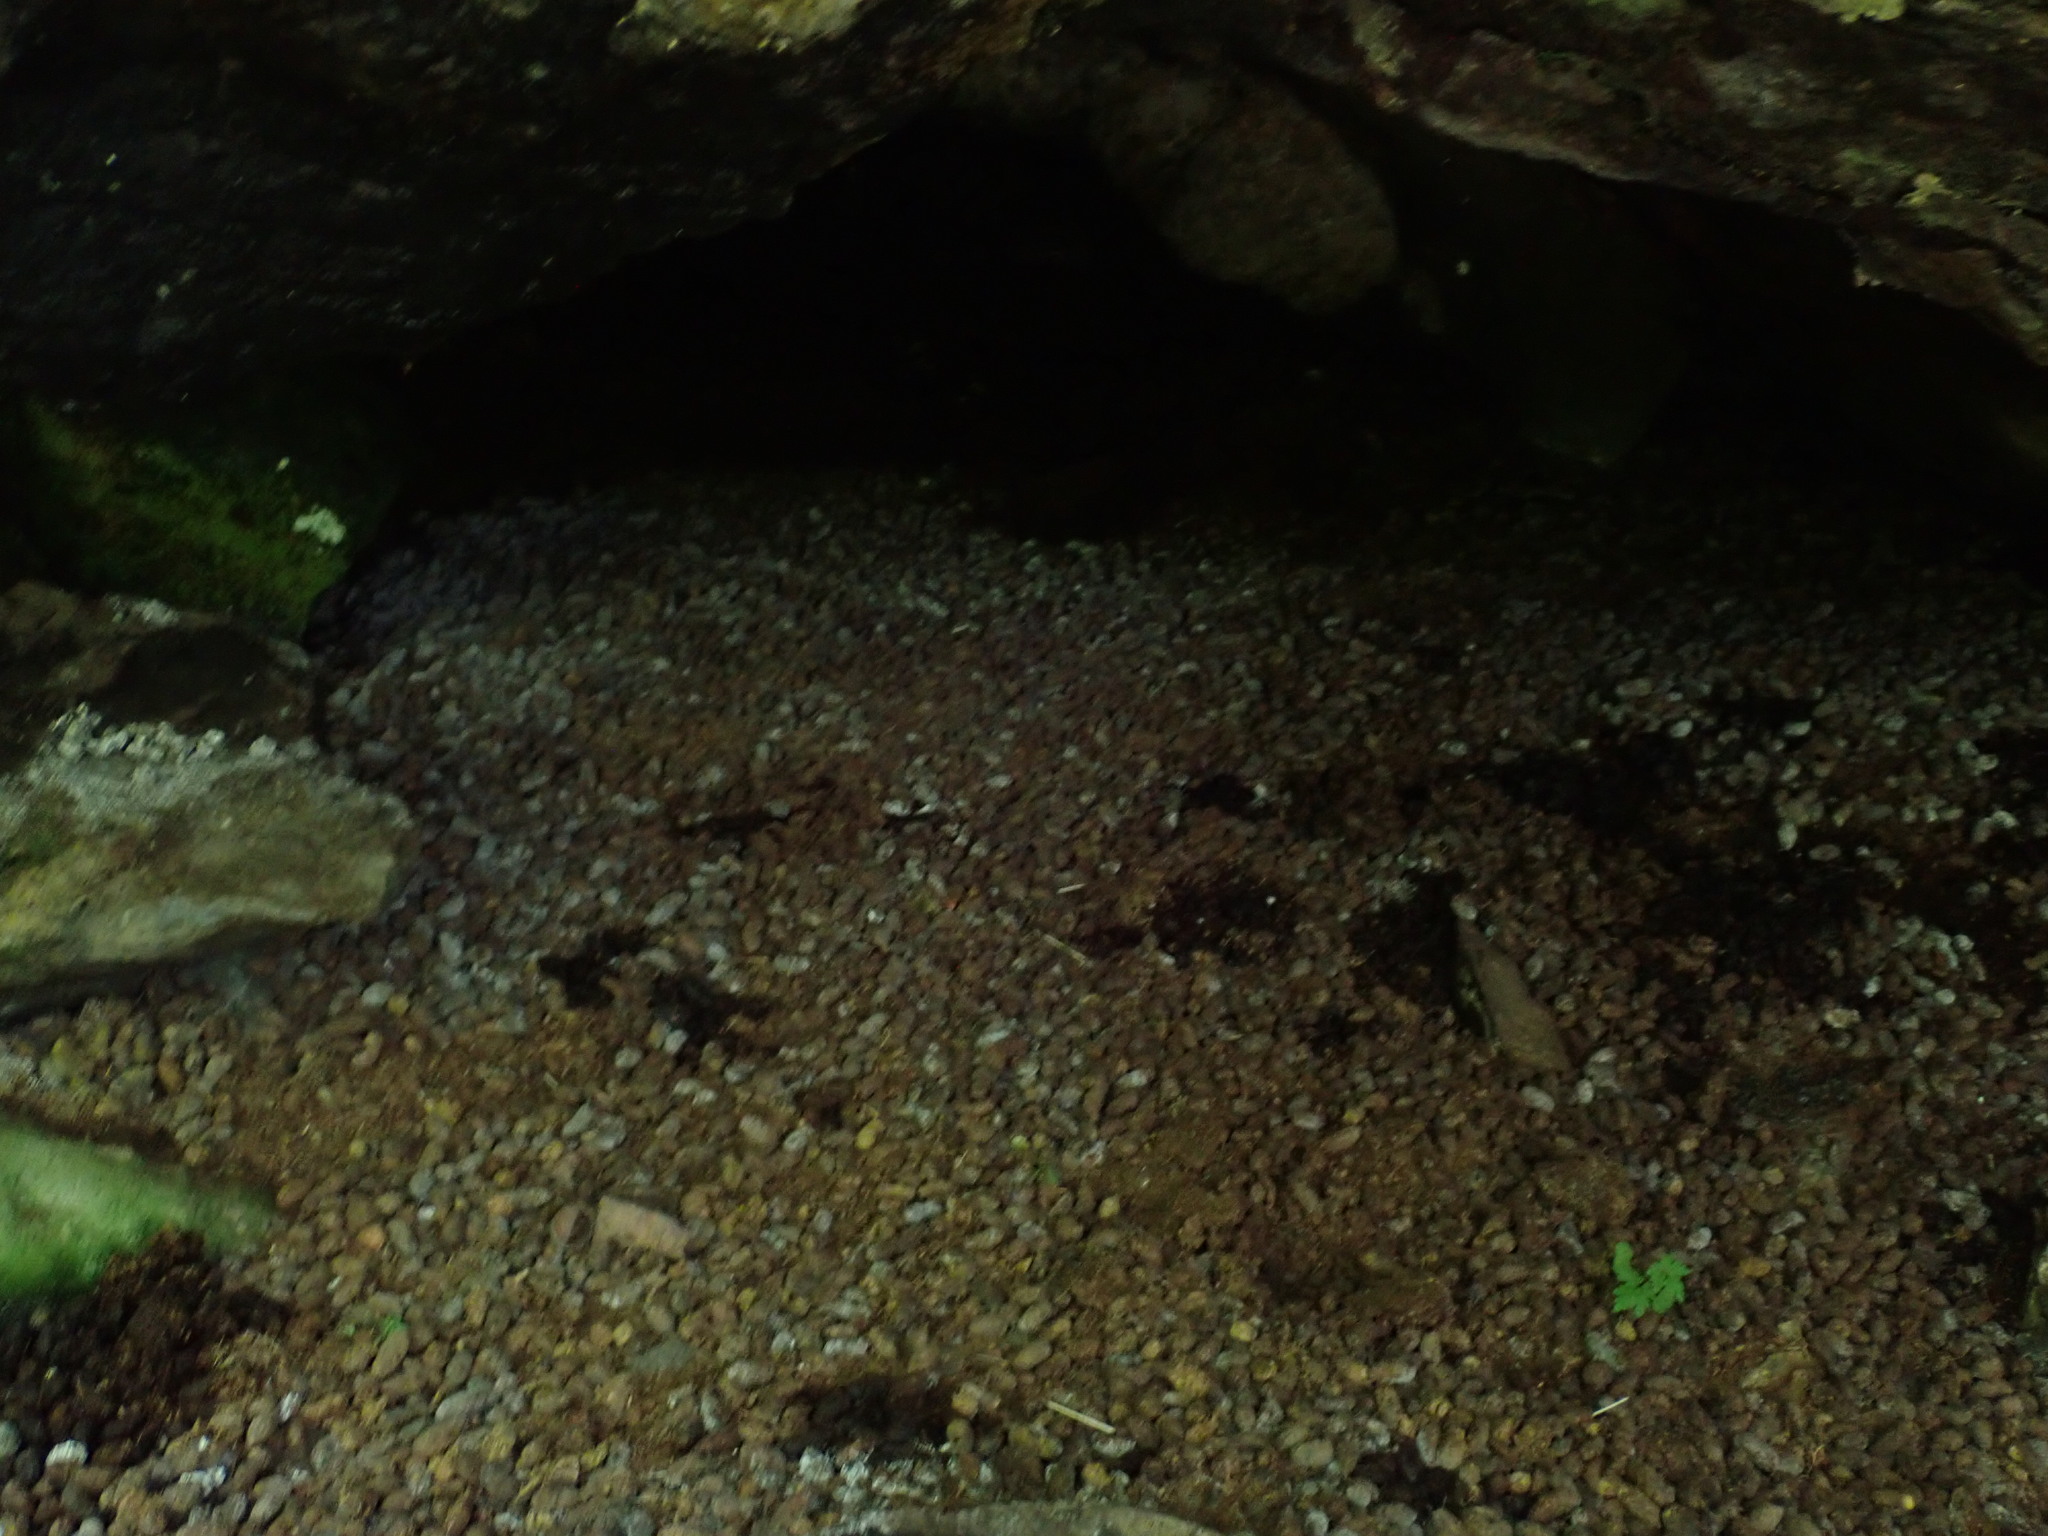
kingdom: Animalia
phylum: Chordata
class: Mammalia
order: Rodentia
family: Erethizontidae
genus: Erethizon
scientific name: Erethizon dorsatus
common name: North american porcupine
